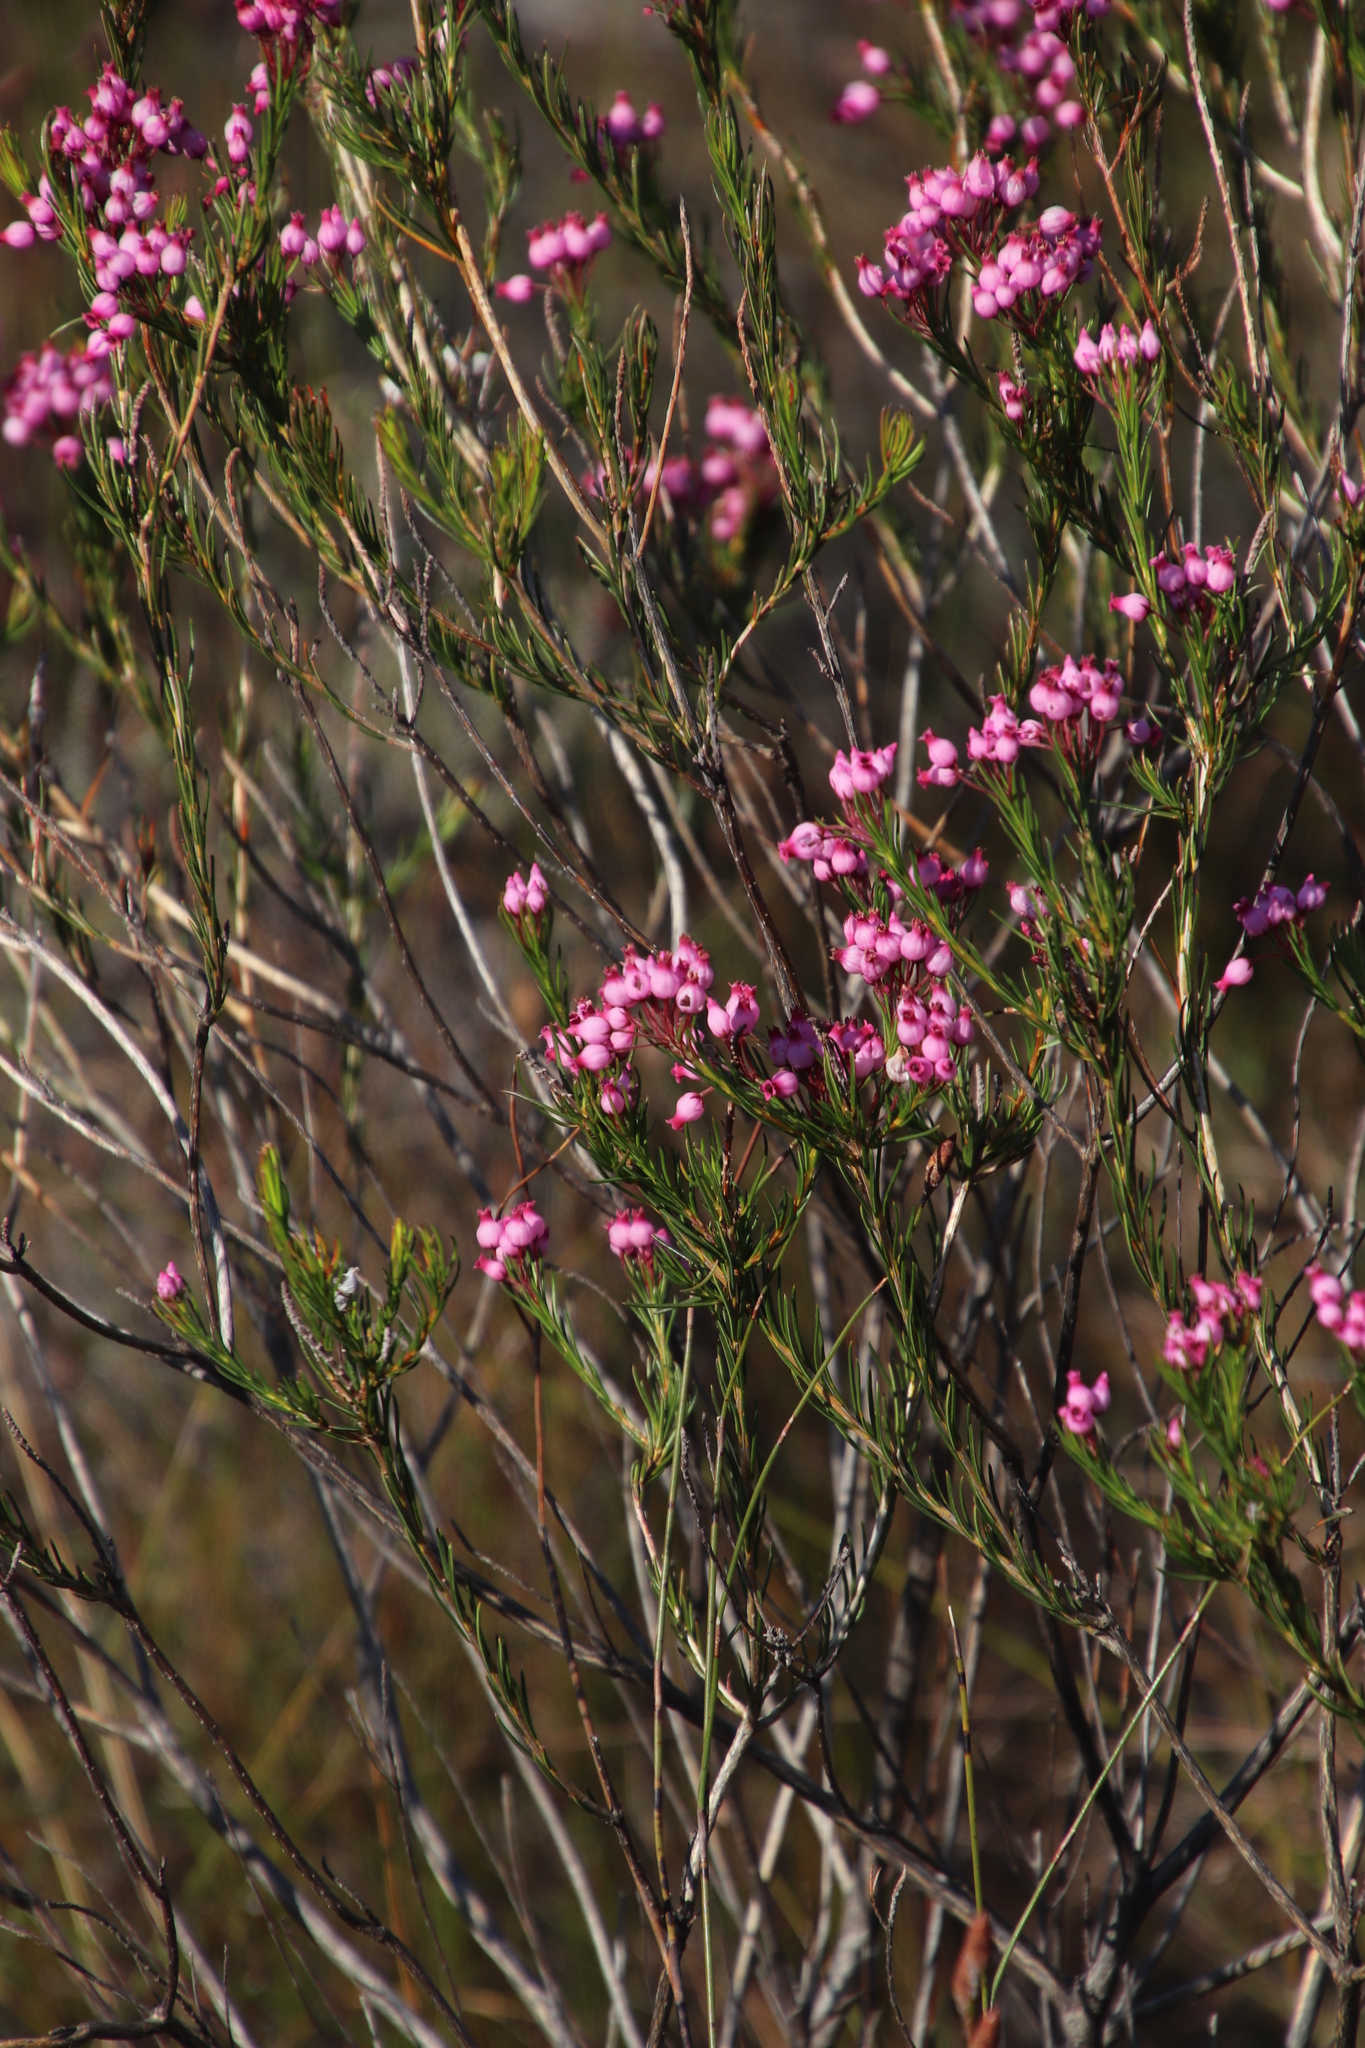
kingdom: Plantae
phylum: Tracheophyta
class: Magnoliopsida
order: Ericales
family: Ericaceae
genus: Erica
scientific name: Erica inflata
